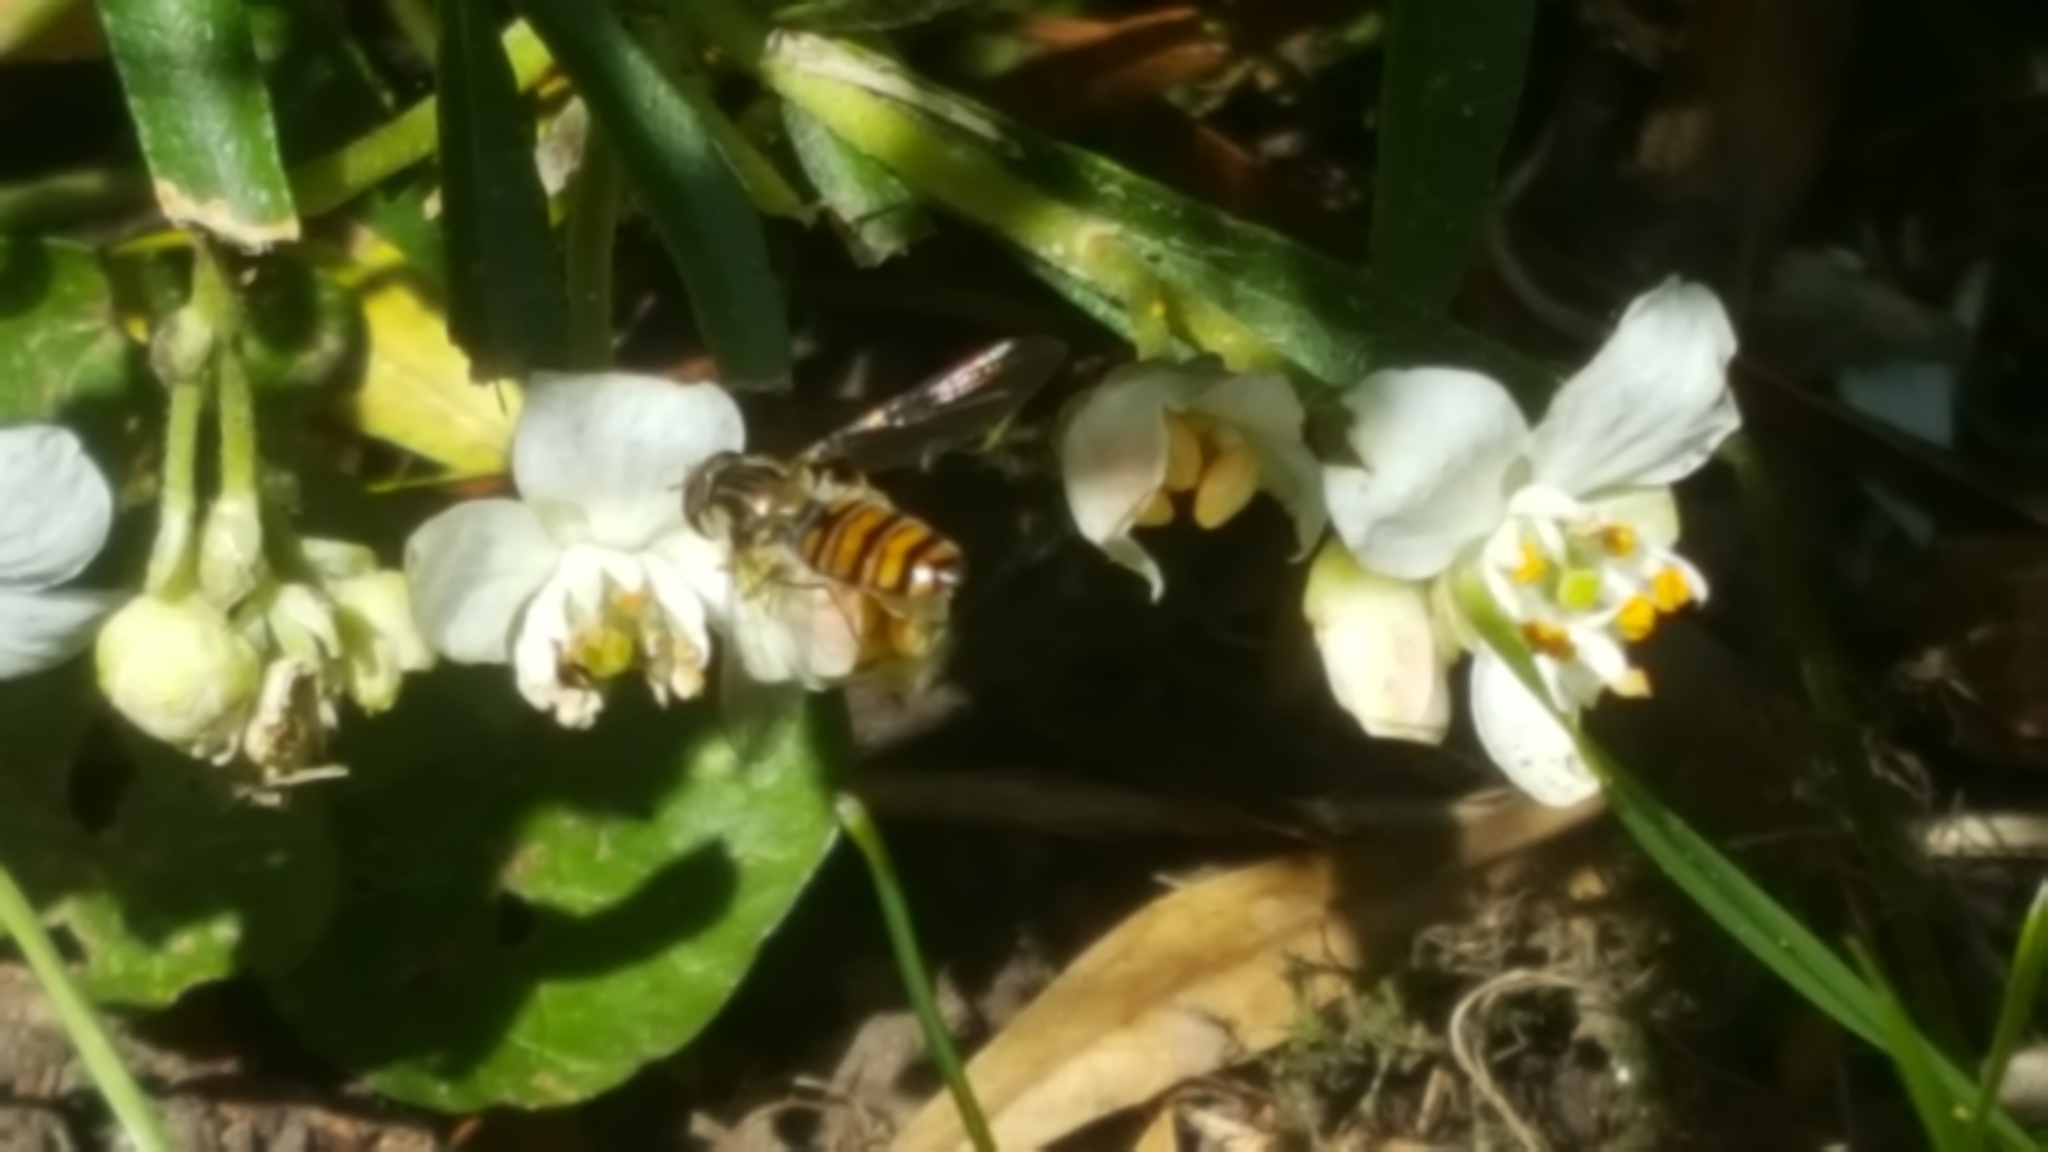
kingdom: Animalia
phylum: Arthropoda
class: Insecta
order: Diptera
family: Syrphidae
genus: Episyrphus
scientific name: Episyrphus balteatus
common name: Marmalade hoverfly
